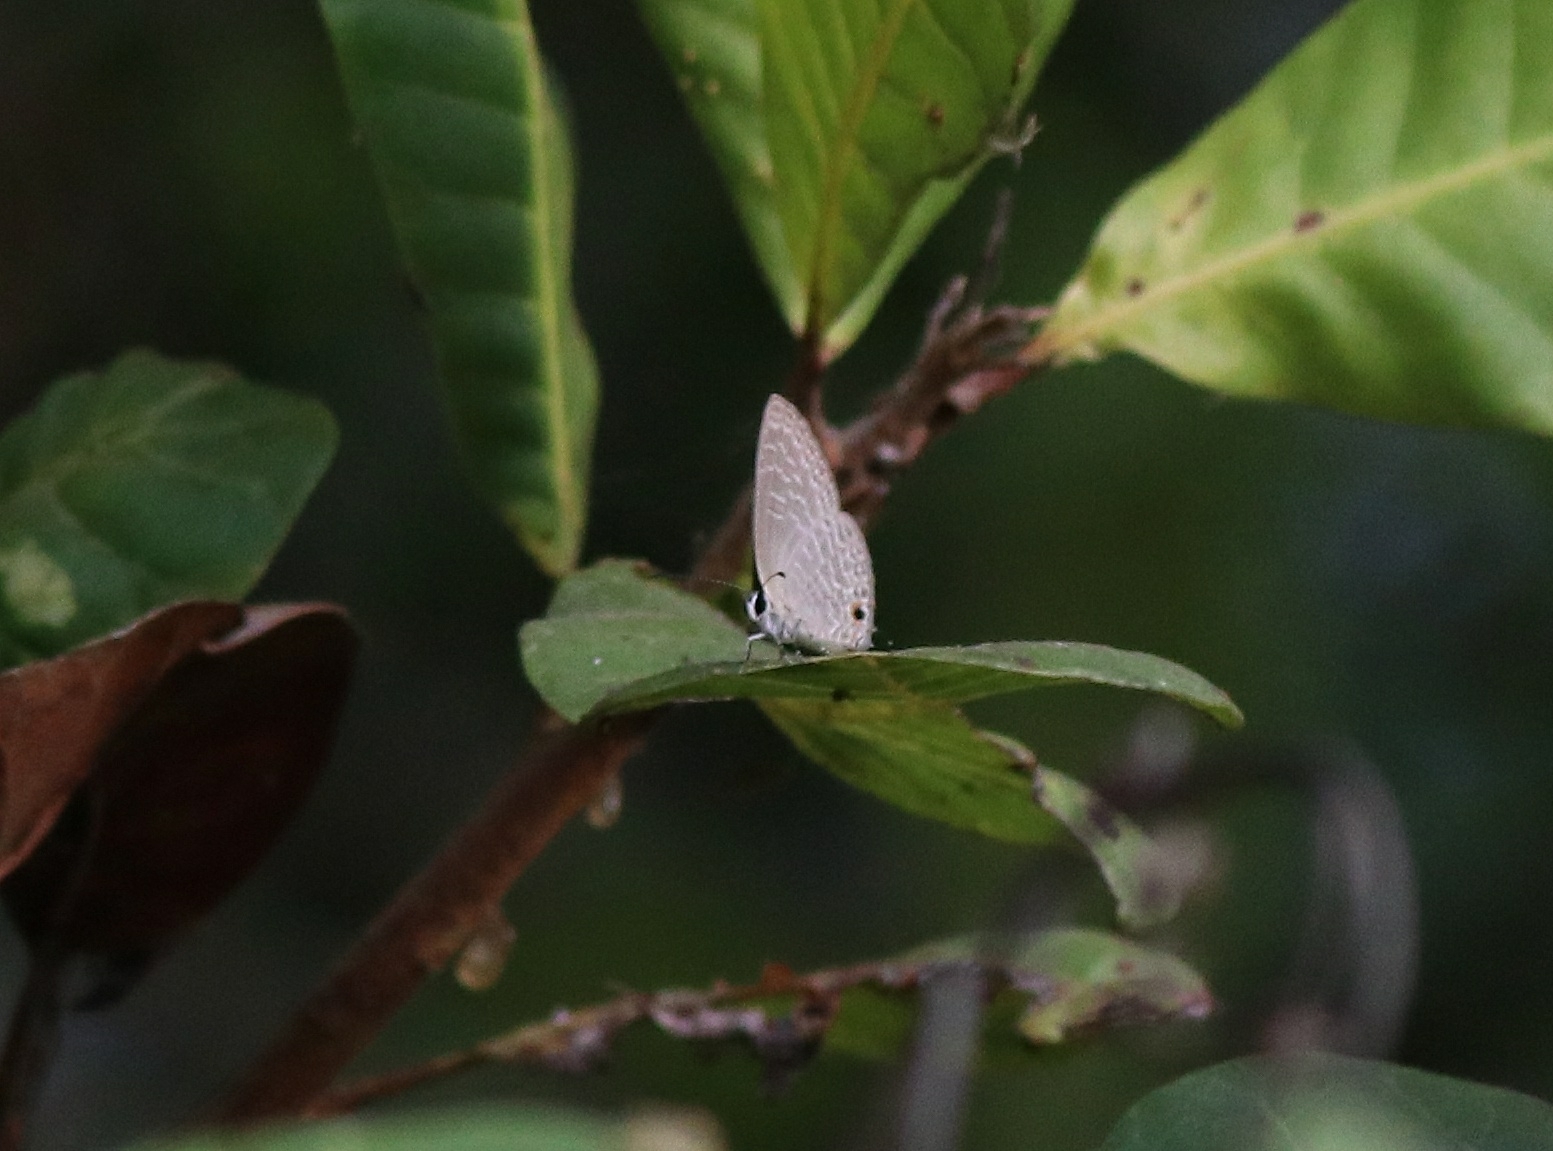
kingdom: Animalia
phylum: Arthropoda
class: Insecta
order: Lepidoptera
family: Lycaenidae
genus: Jamides
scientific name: Jamides bochus
